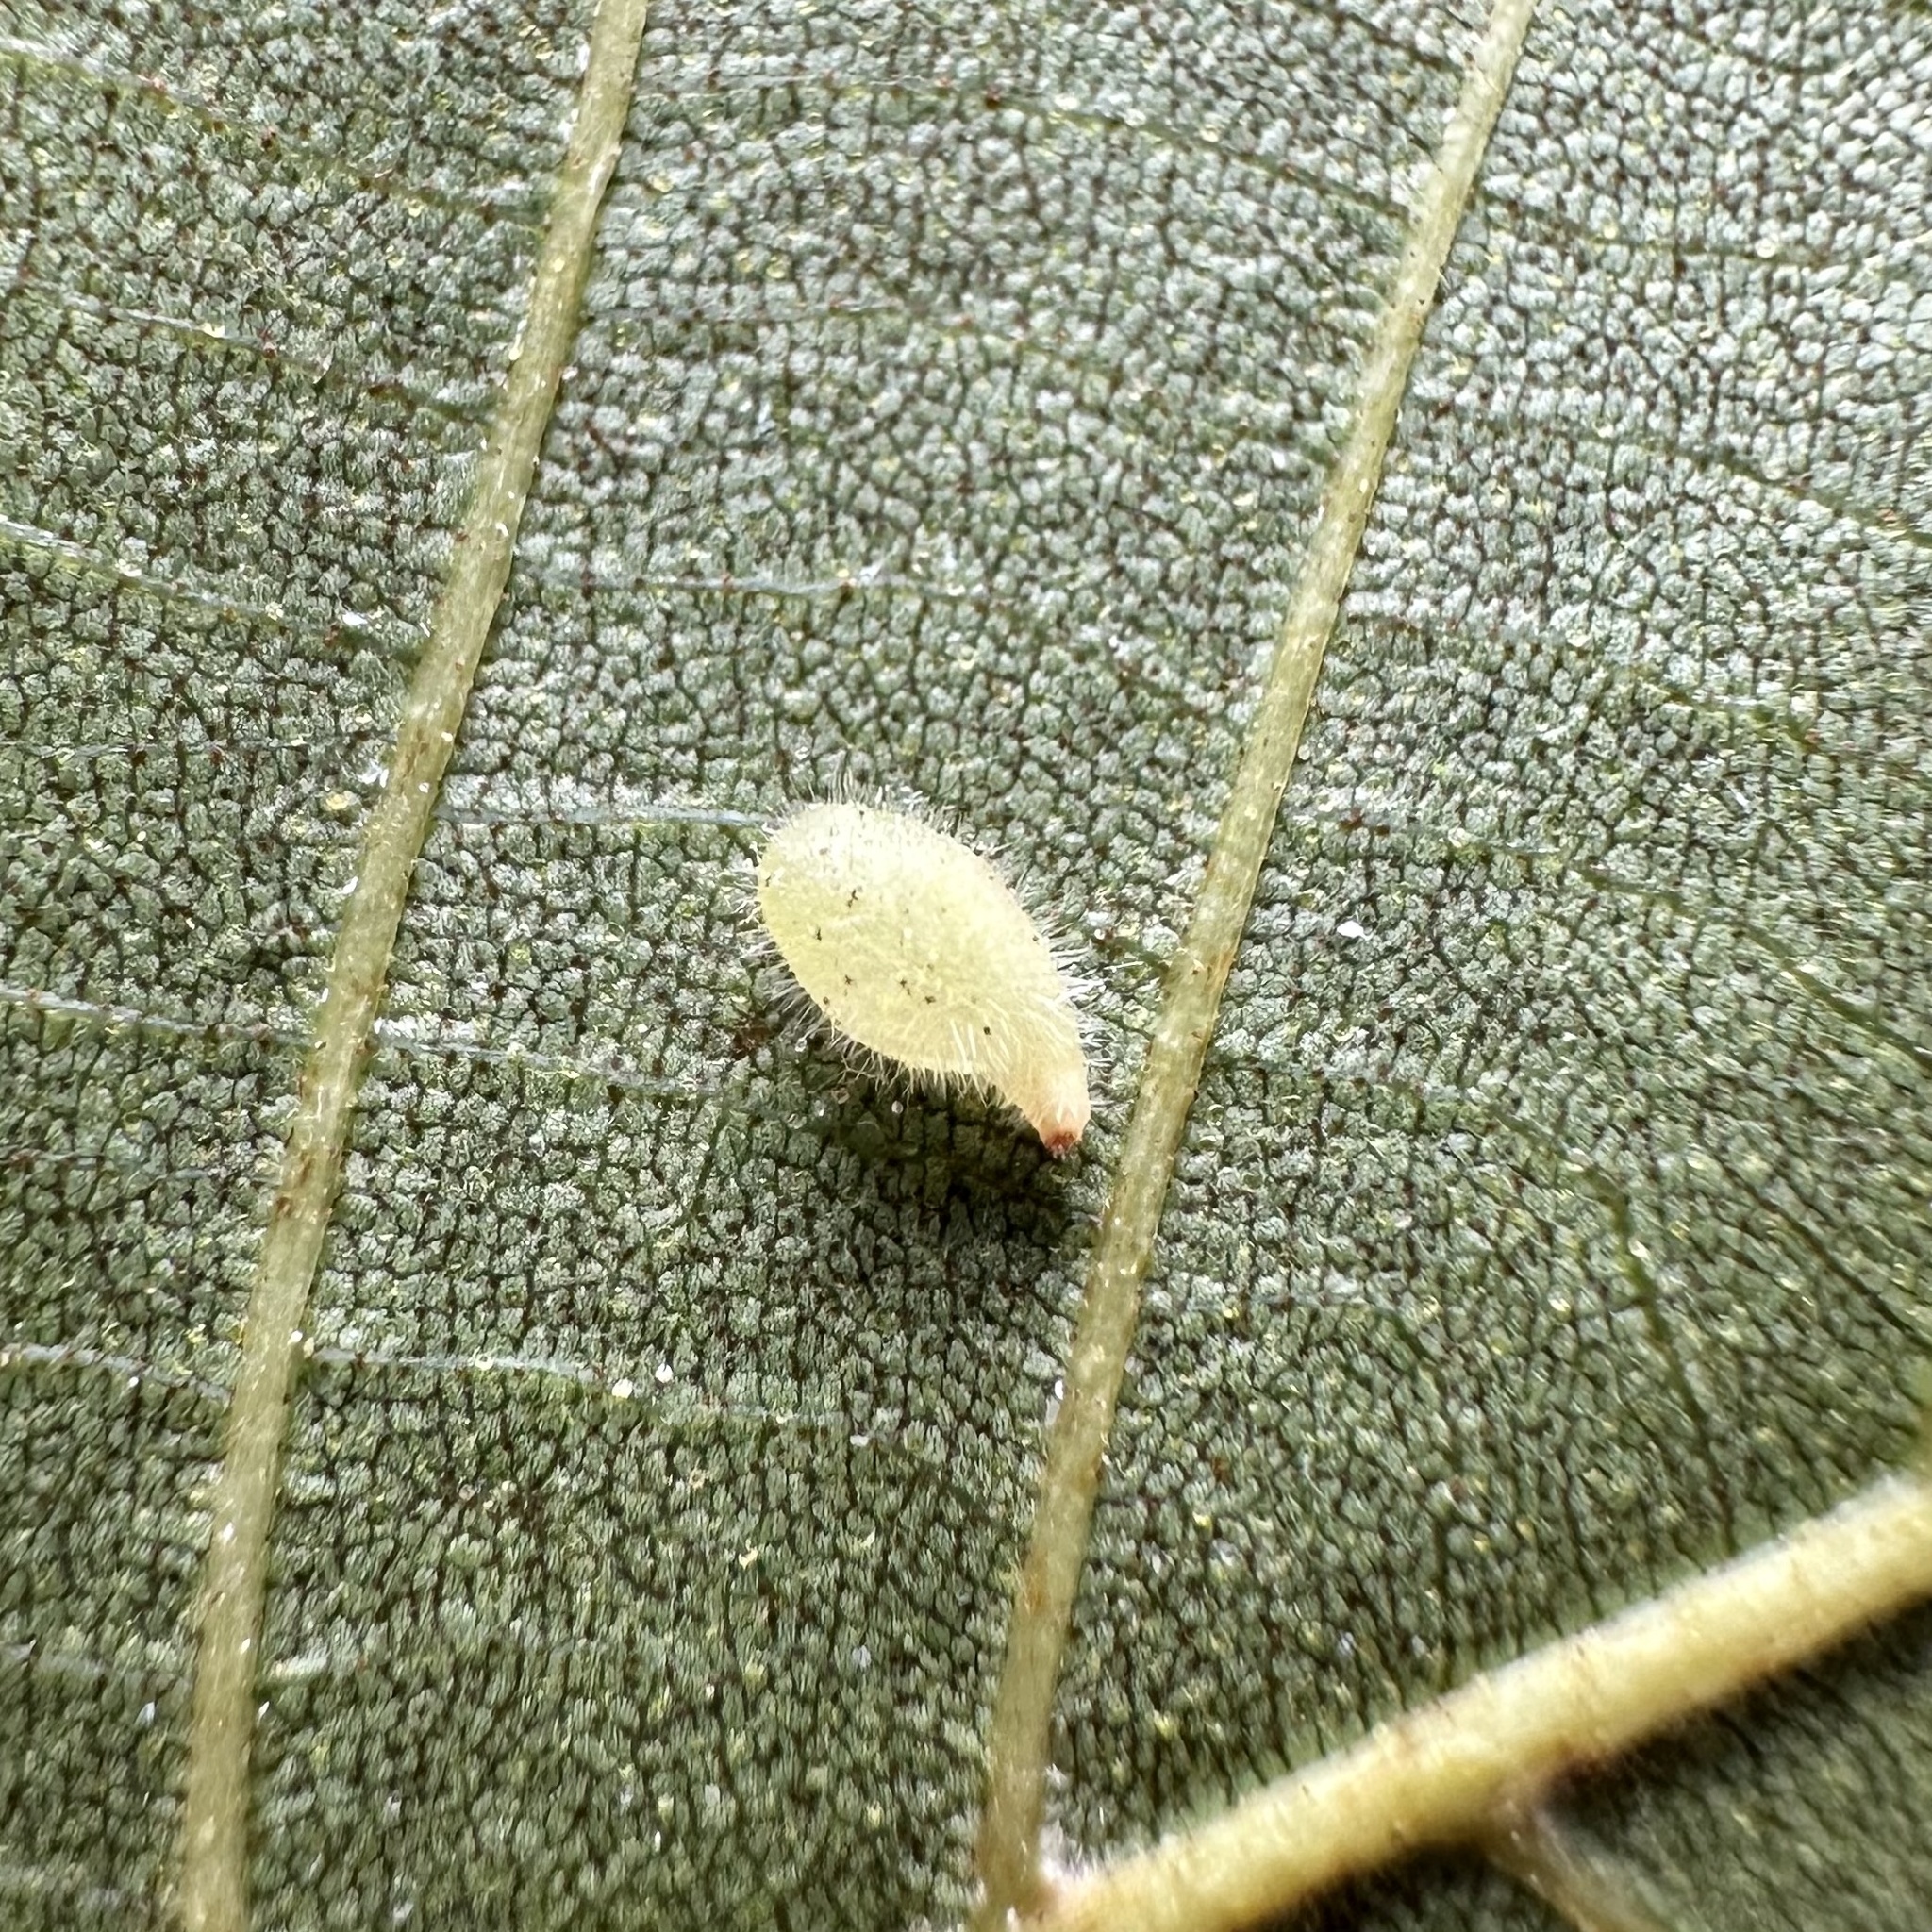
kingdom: Animalia
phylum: Arthropoda
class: Insecta
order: Diptera
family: Cecidomyiidae
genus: Caryomyia
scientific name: Caryomyia eumaris
